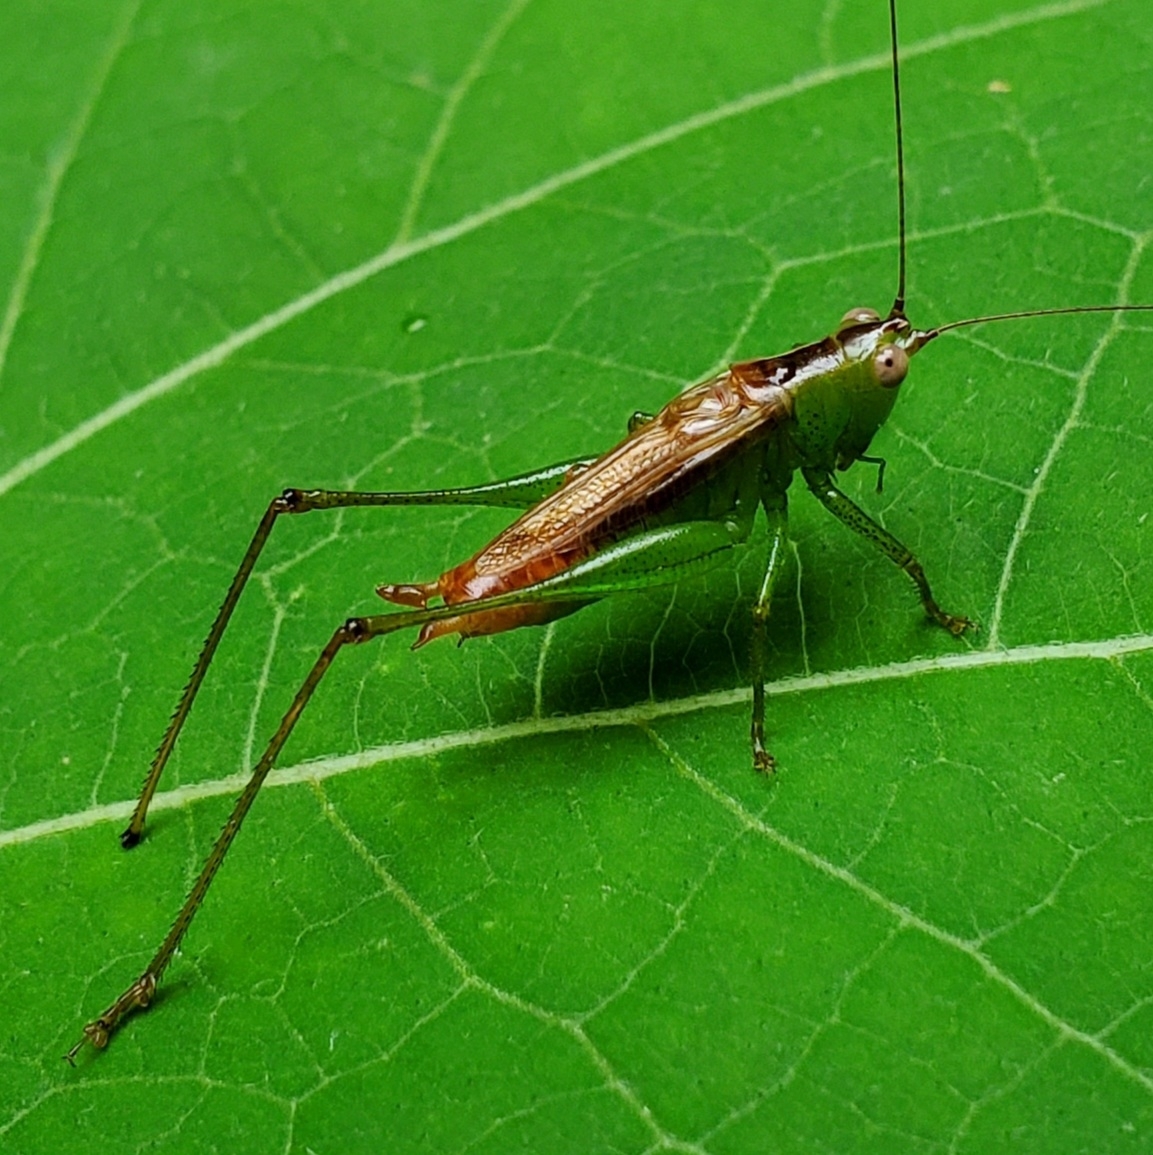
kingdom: Animalia
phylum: Arthropoda
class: Insecta
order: Orthoptera
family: Tettigoniidae
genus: Conocephalus
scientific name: Conocephalus brevipennis
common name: Short-winged meadow katydid
